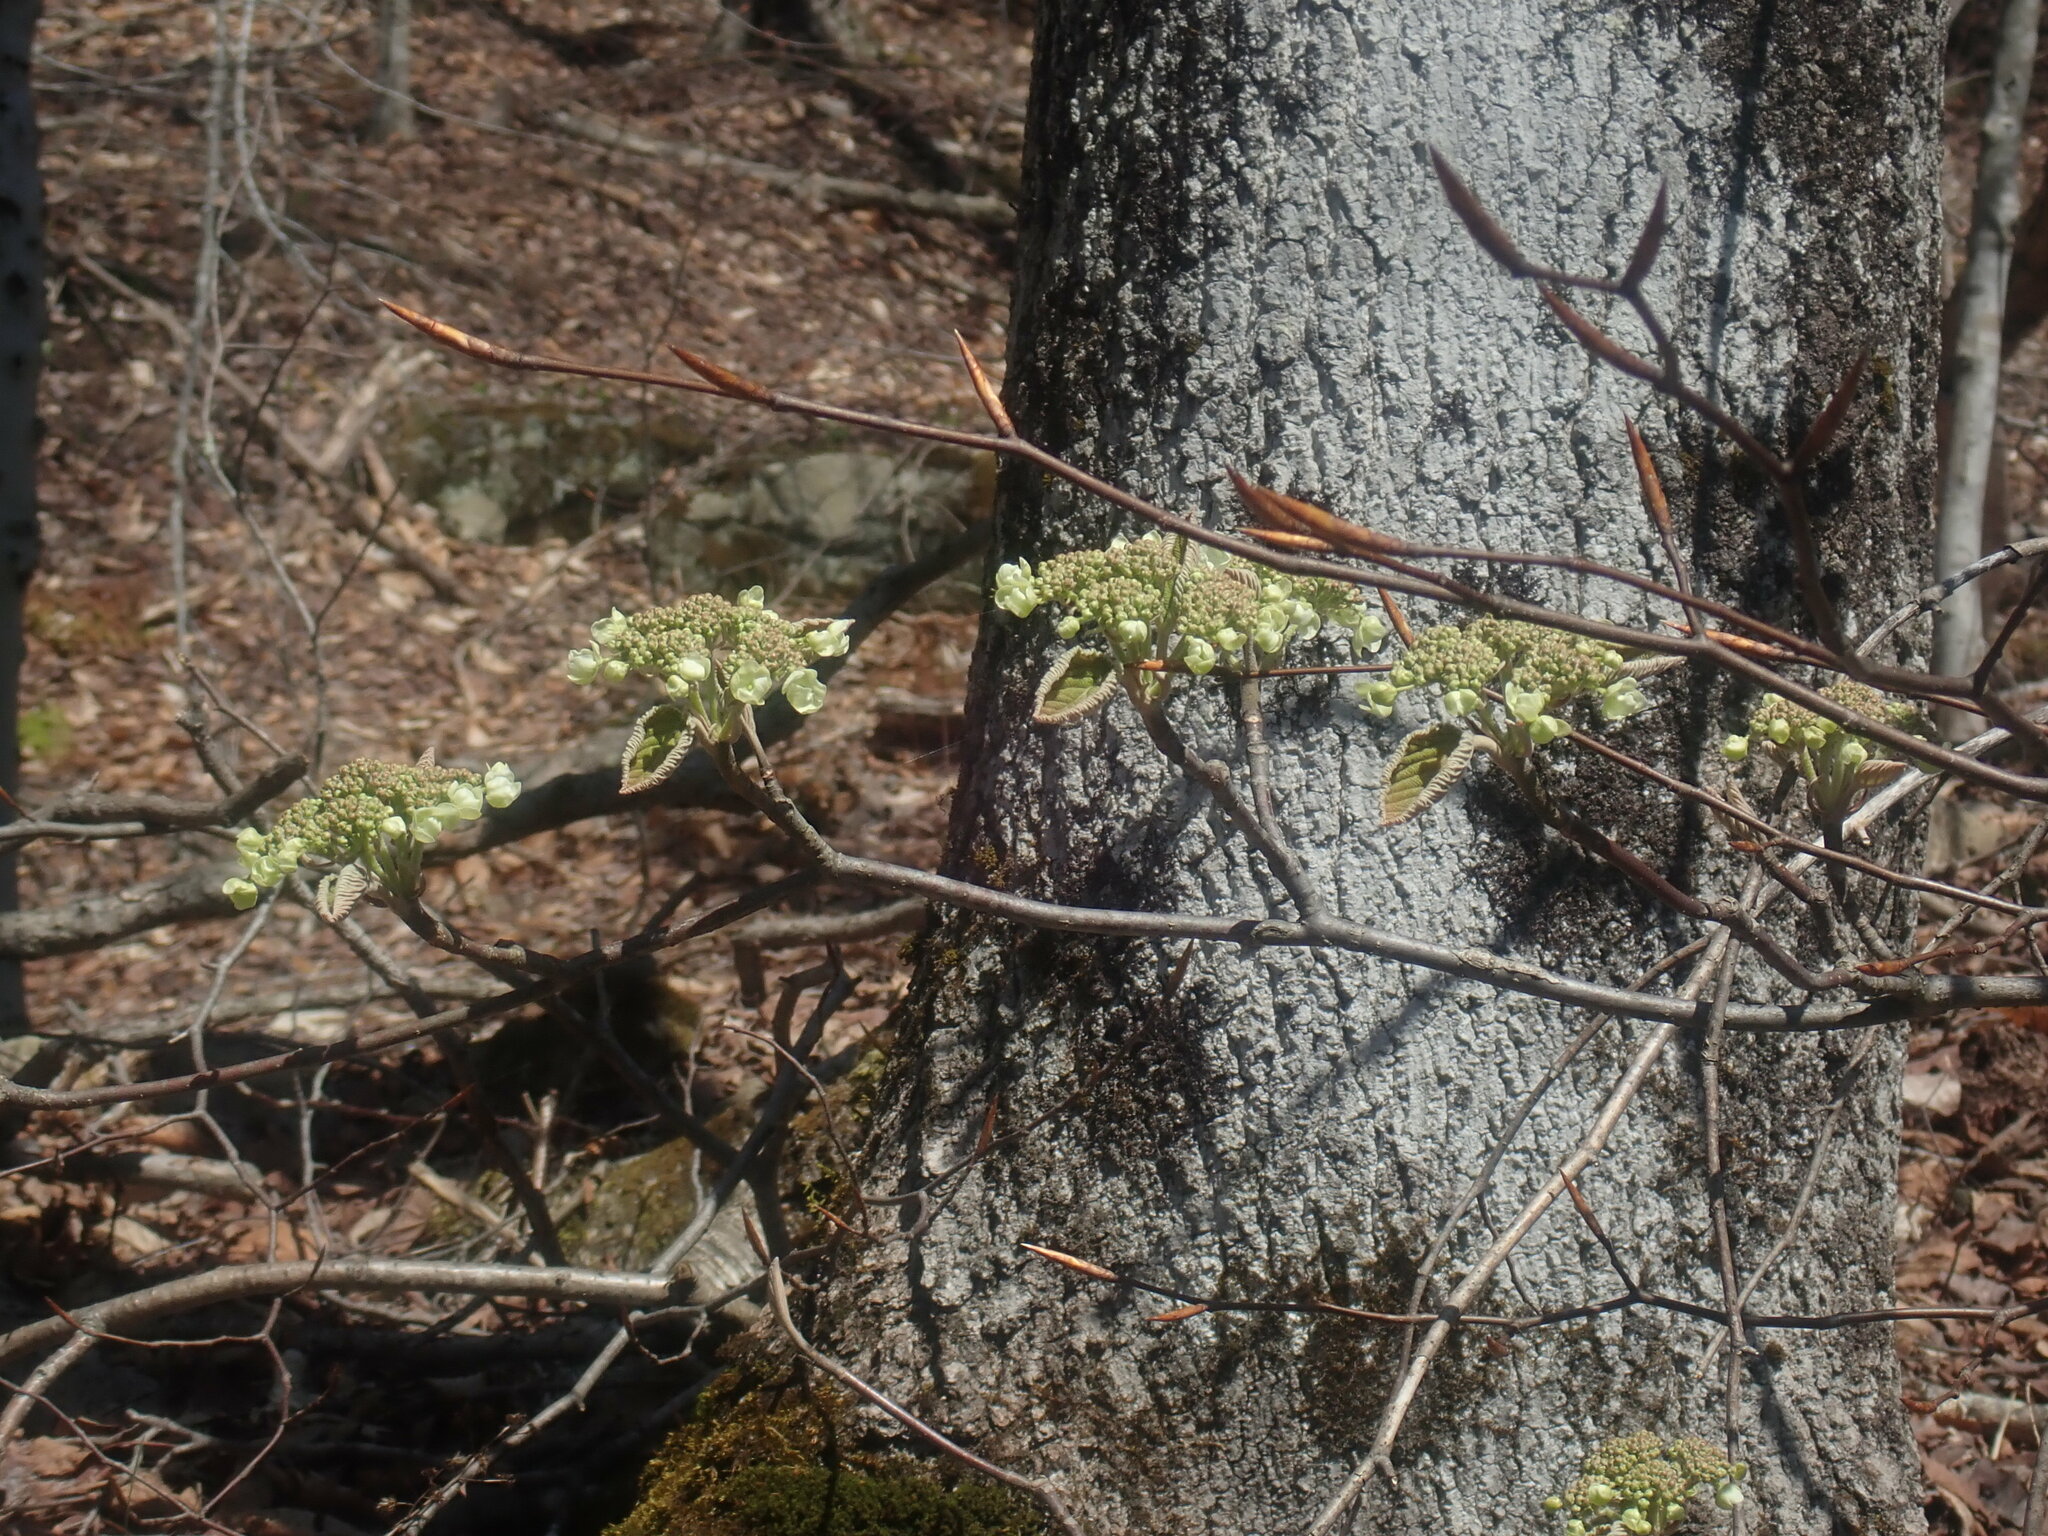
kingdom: Plantae
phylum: Tracheophyta
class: Magnoliopsida
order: Dipsacales
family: Viburnaceae
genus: Viburnum
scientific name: Viburnum lantanoides
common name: Hobblebush
